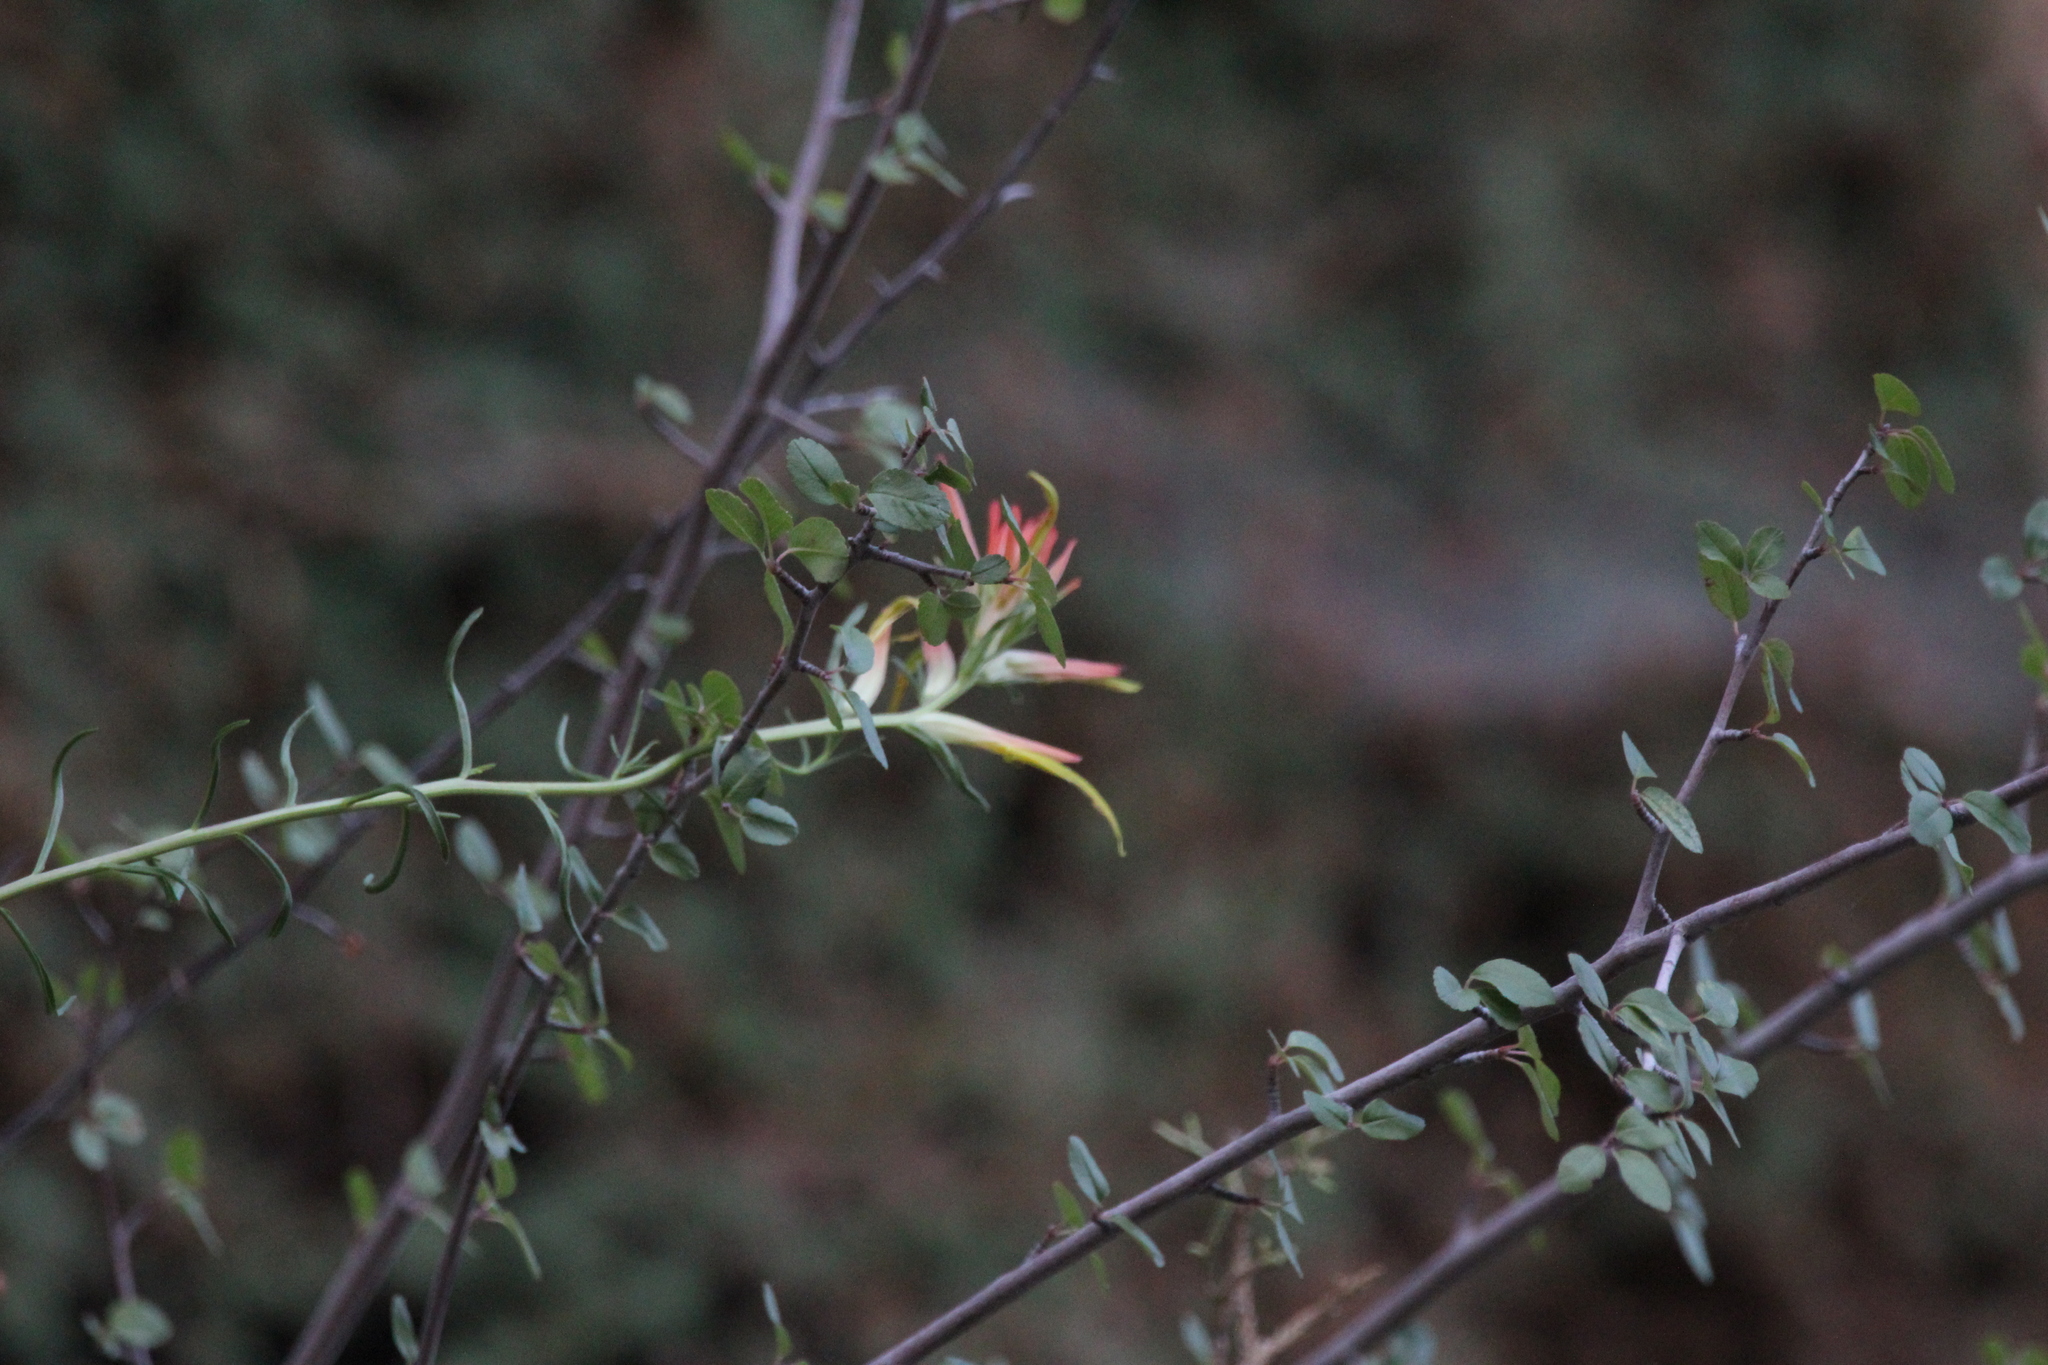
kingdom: Plantae
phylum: Tracheophyta
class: Magnoliopsida
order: Lamiales
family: Orobanchaceae
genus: Castilleja
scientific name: Castilleja linariifolia
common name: Wyoming paintbrush
